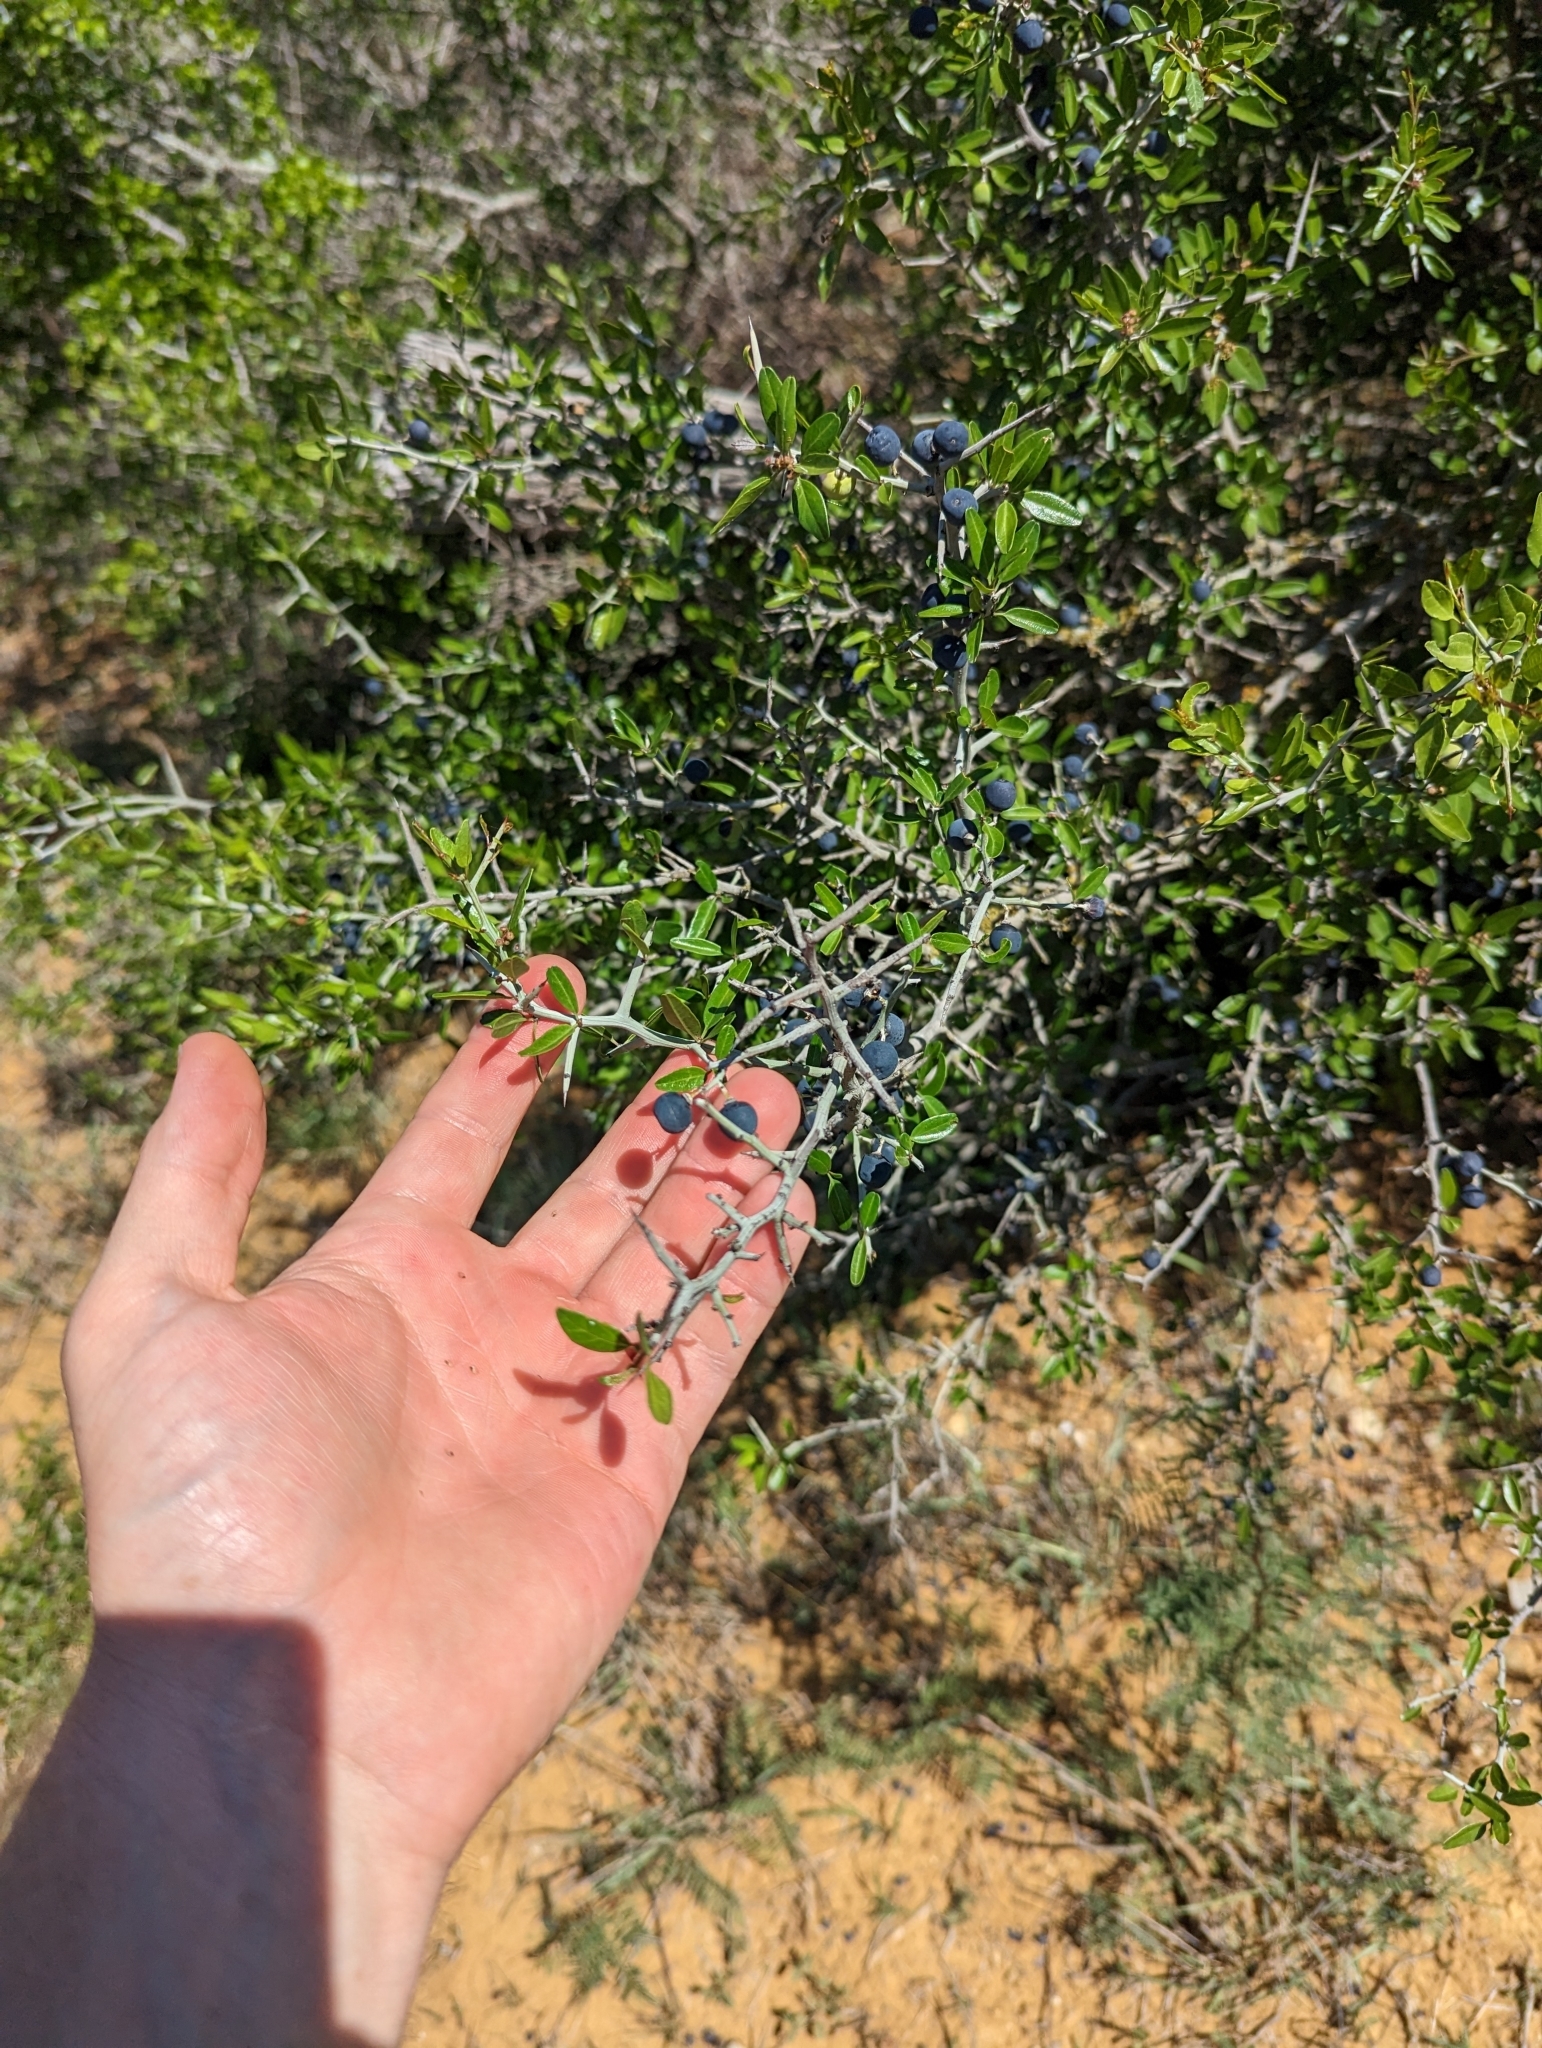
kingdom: Plantae
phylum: Tracheophyta
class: Magnoliopsida
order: Rosales
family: Rhamnaceae
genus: Sarcomphalus
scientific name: Sarcomphalus obtusifolius
